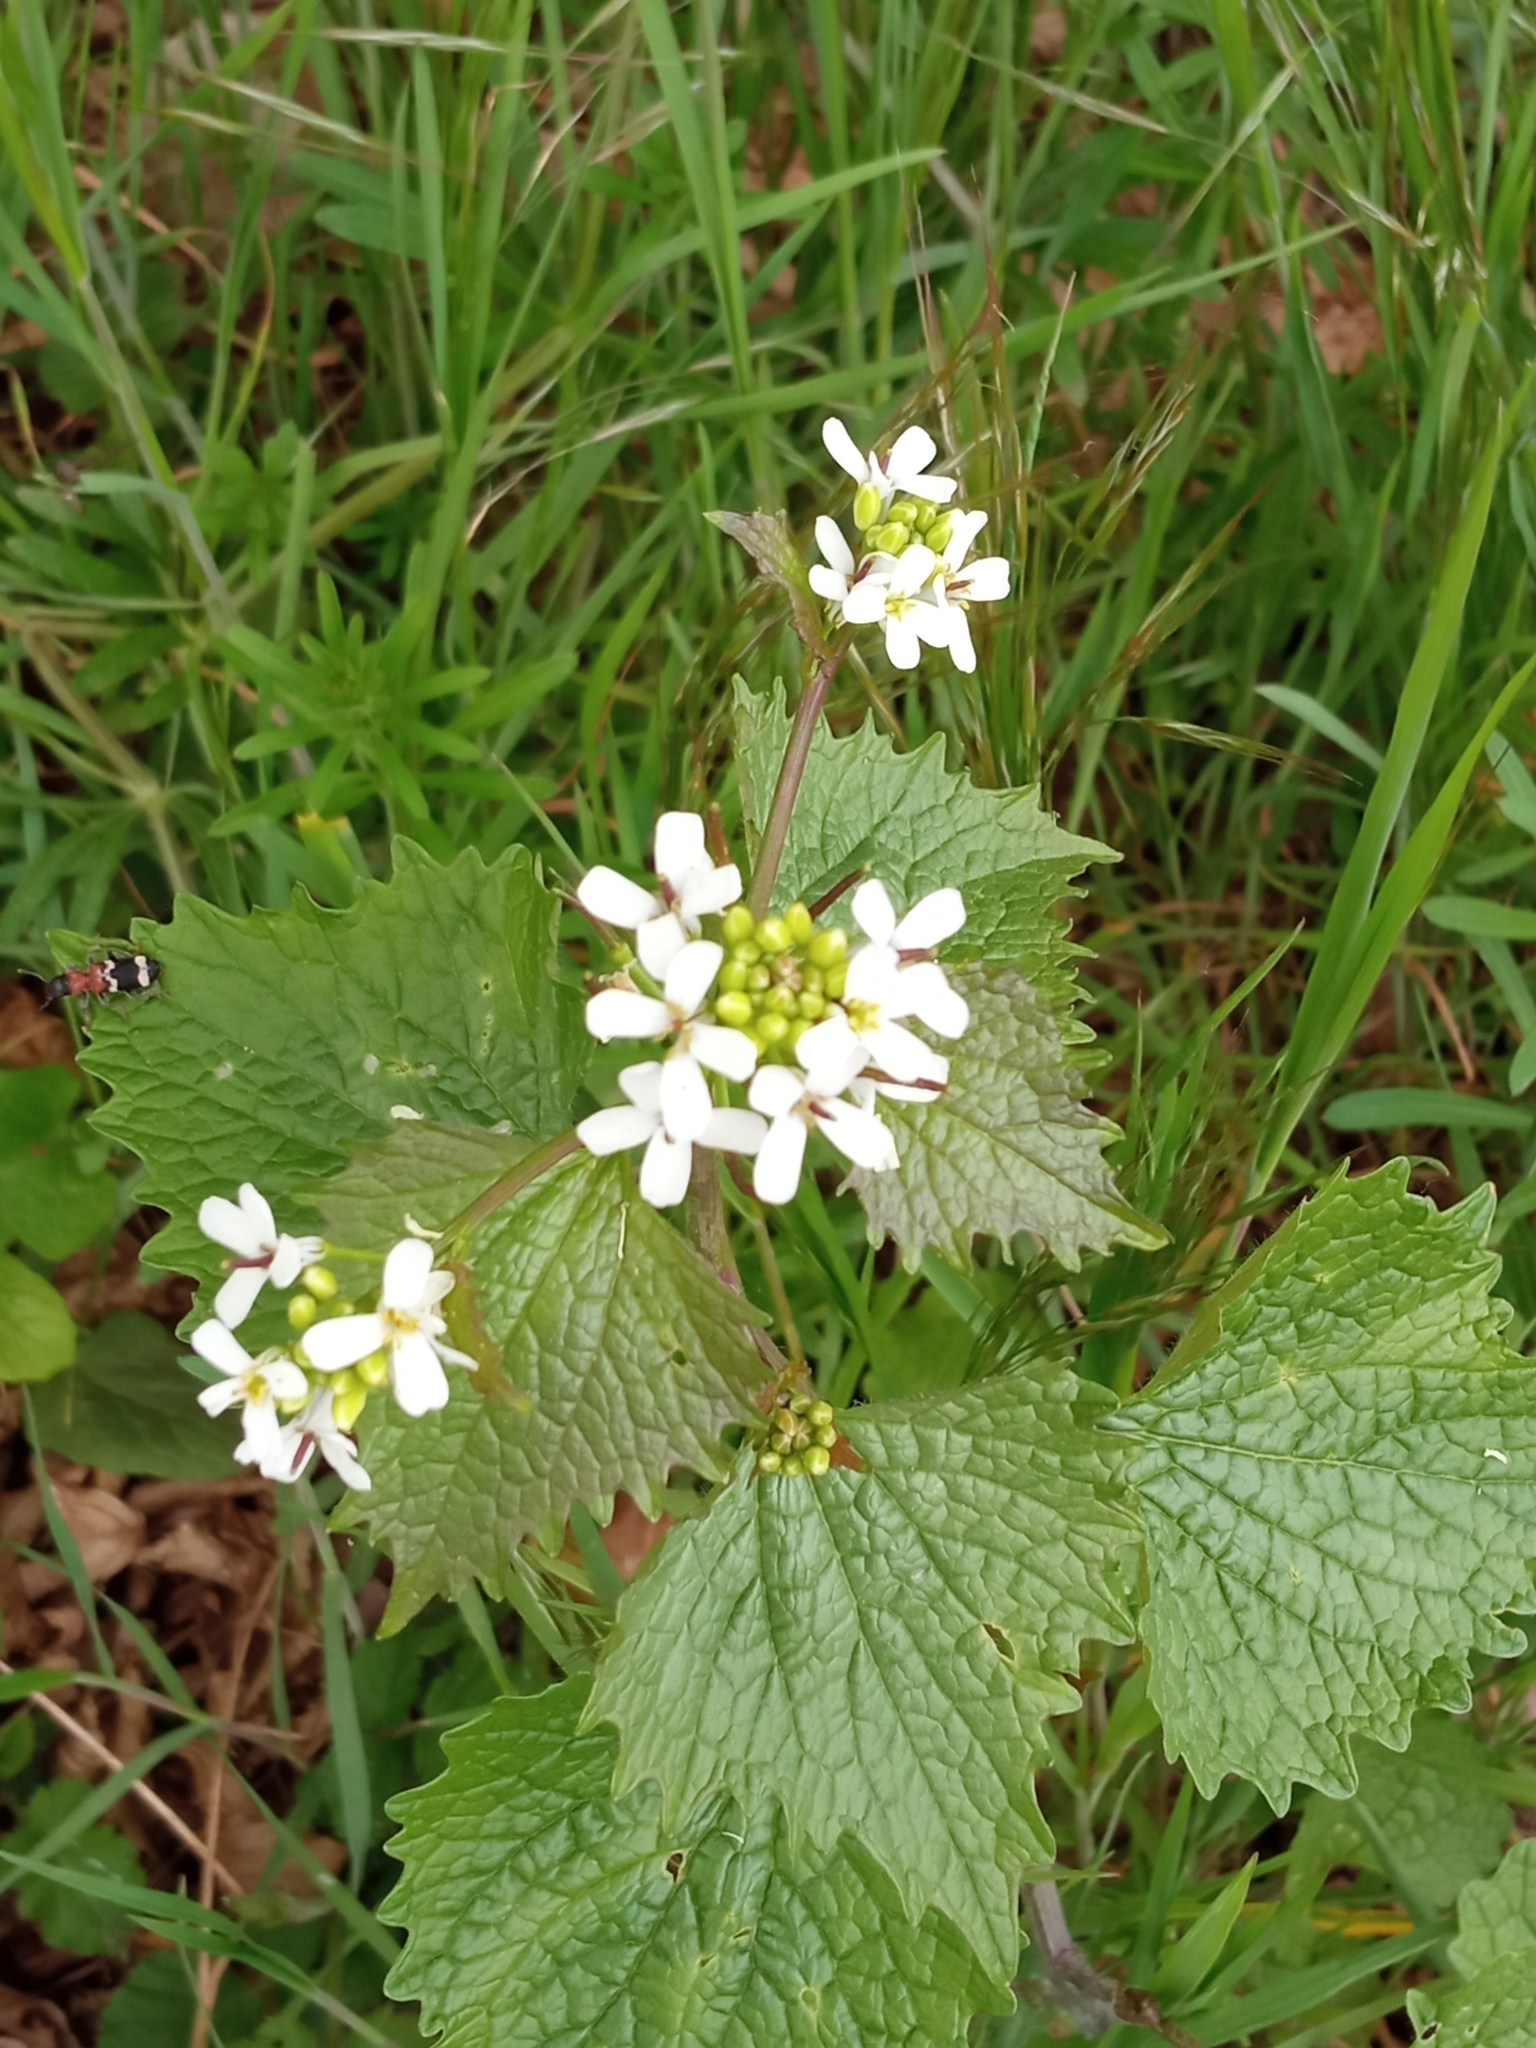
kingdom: Plantae
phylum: Tracheophyta
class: Magnoliopsida
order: Brassicales
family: Brassicaceae
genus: Alliaria
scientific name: Alliaria petiolata
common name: Garlic mustard
